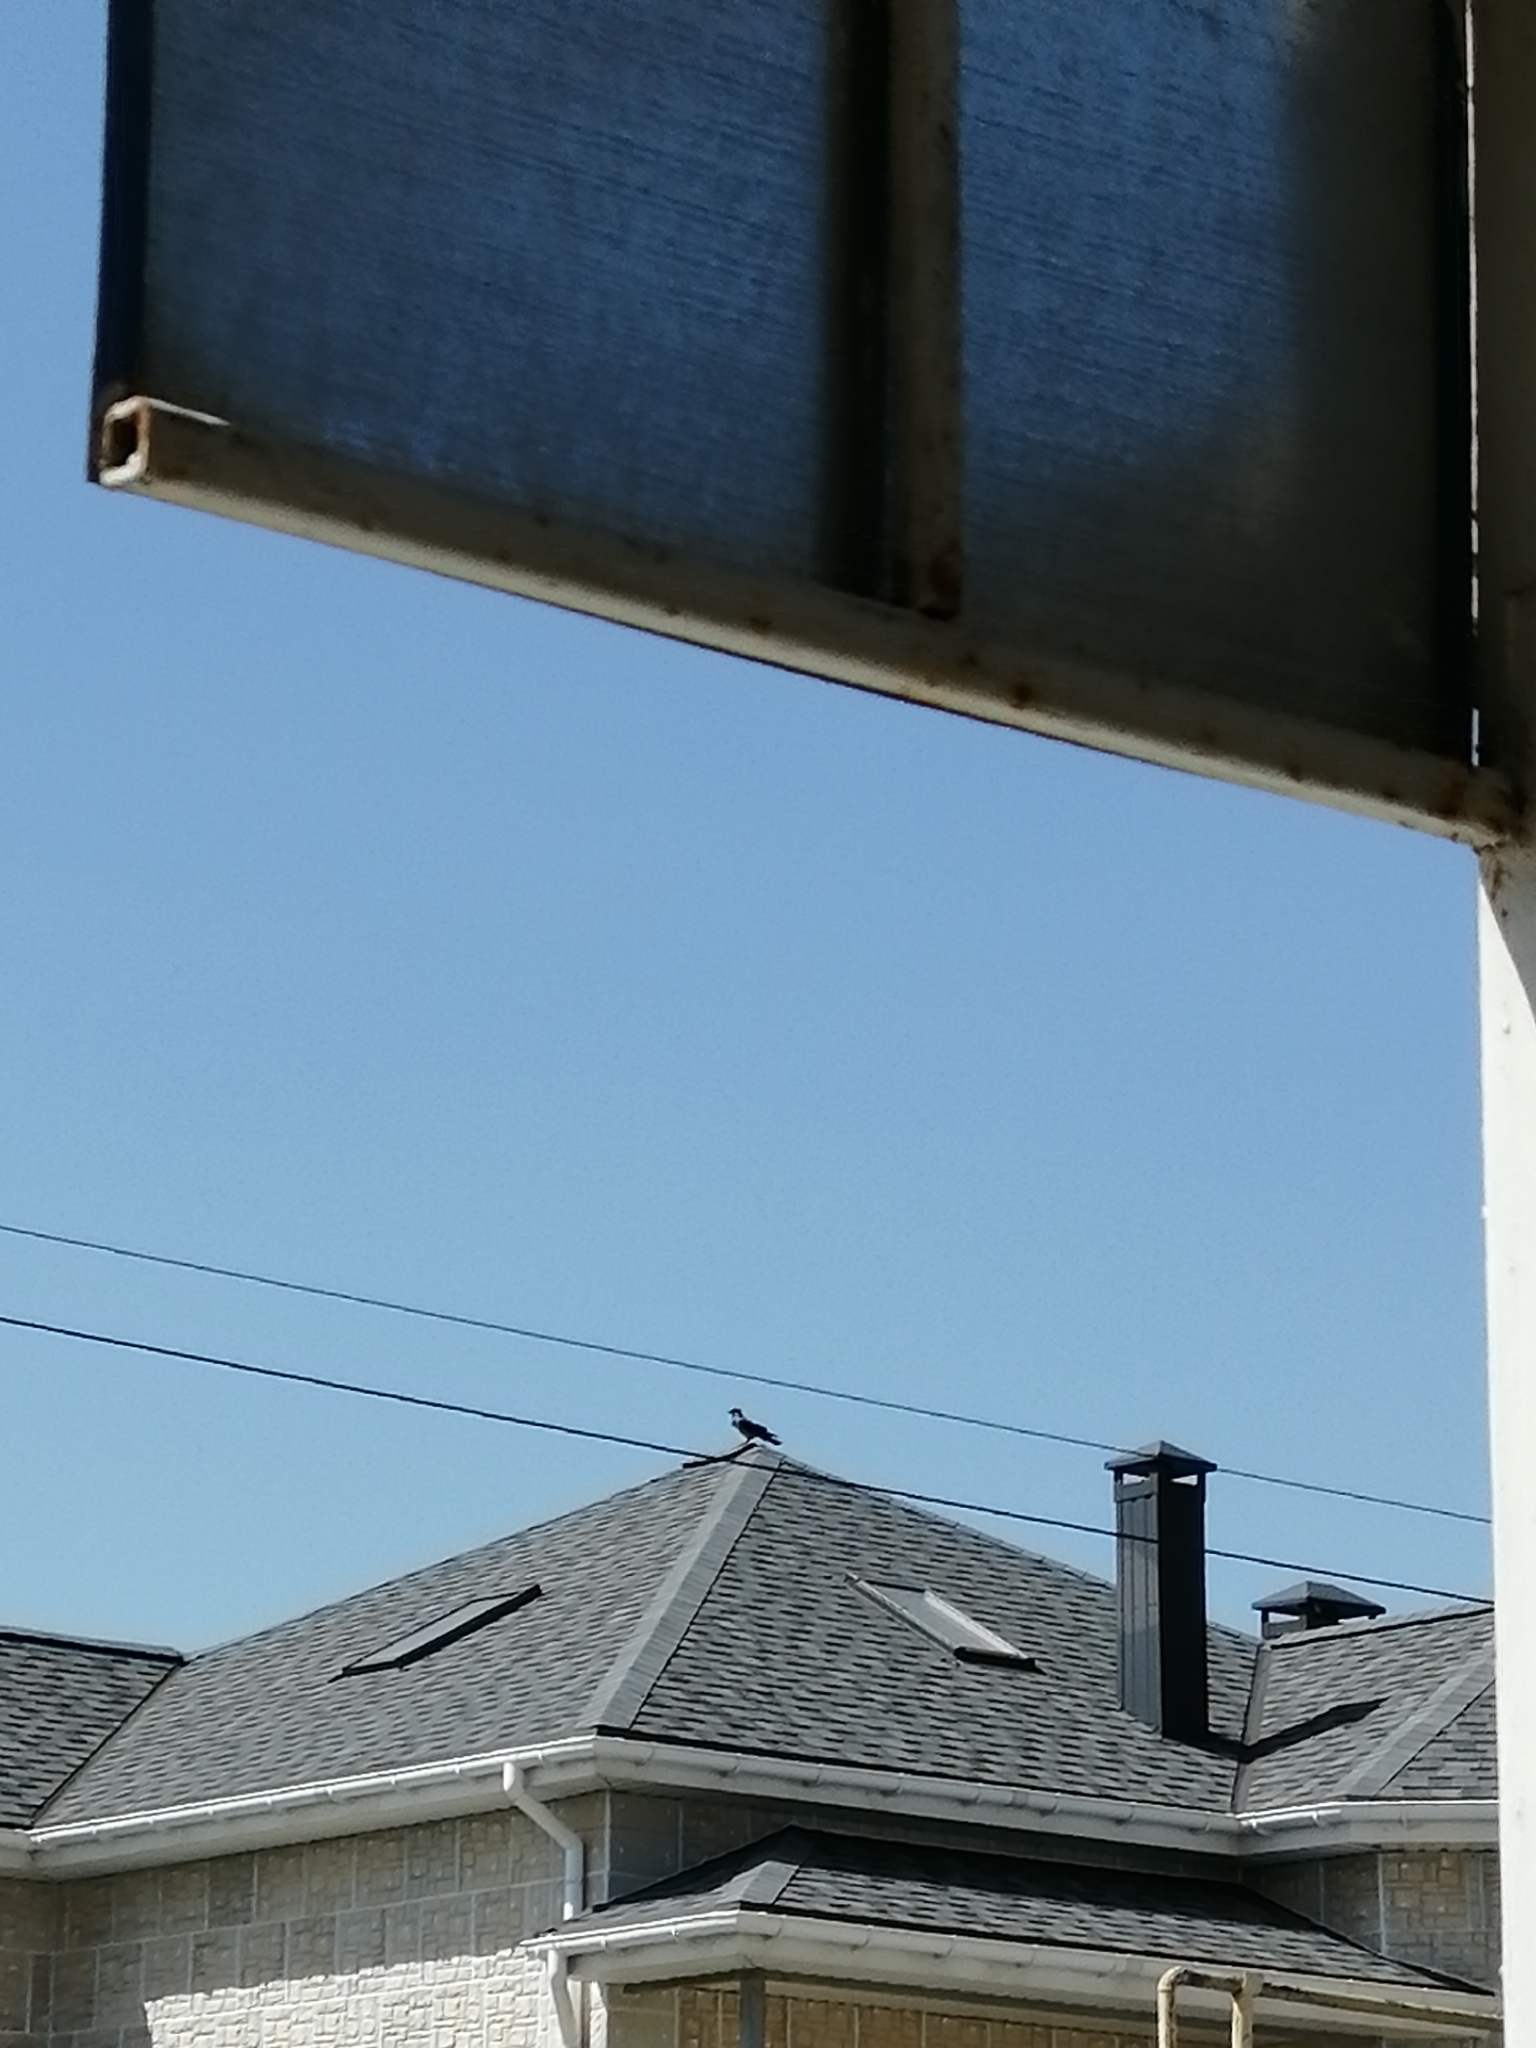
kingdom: Animalia
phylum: Chordata
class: Aves
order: Passeriformes
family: Corvidae
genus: Corvus
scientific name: Corvus cornix
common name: Hooded crow
